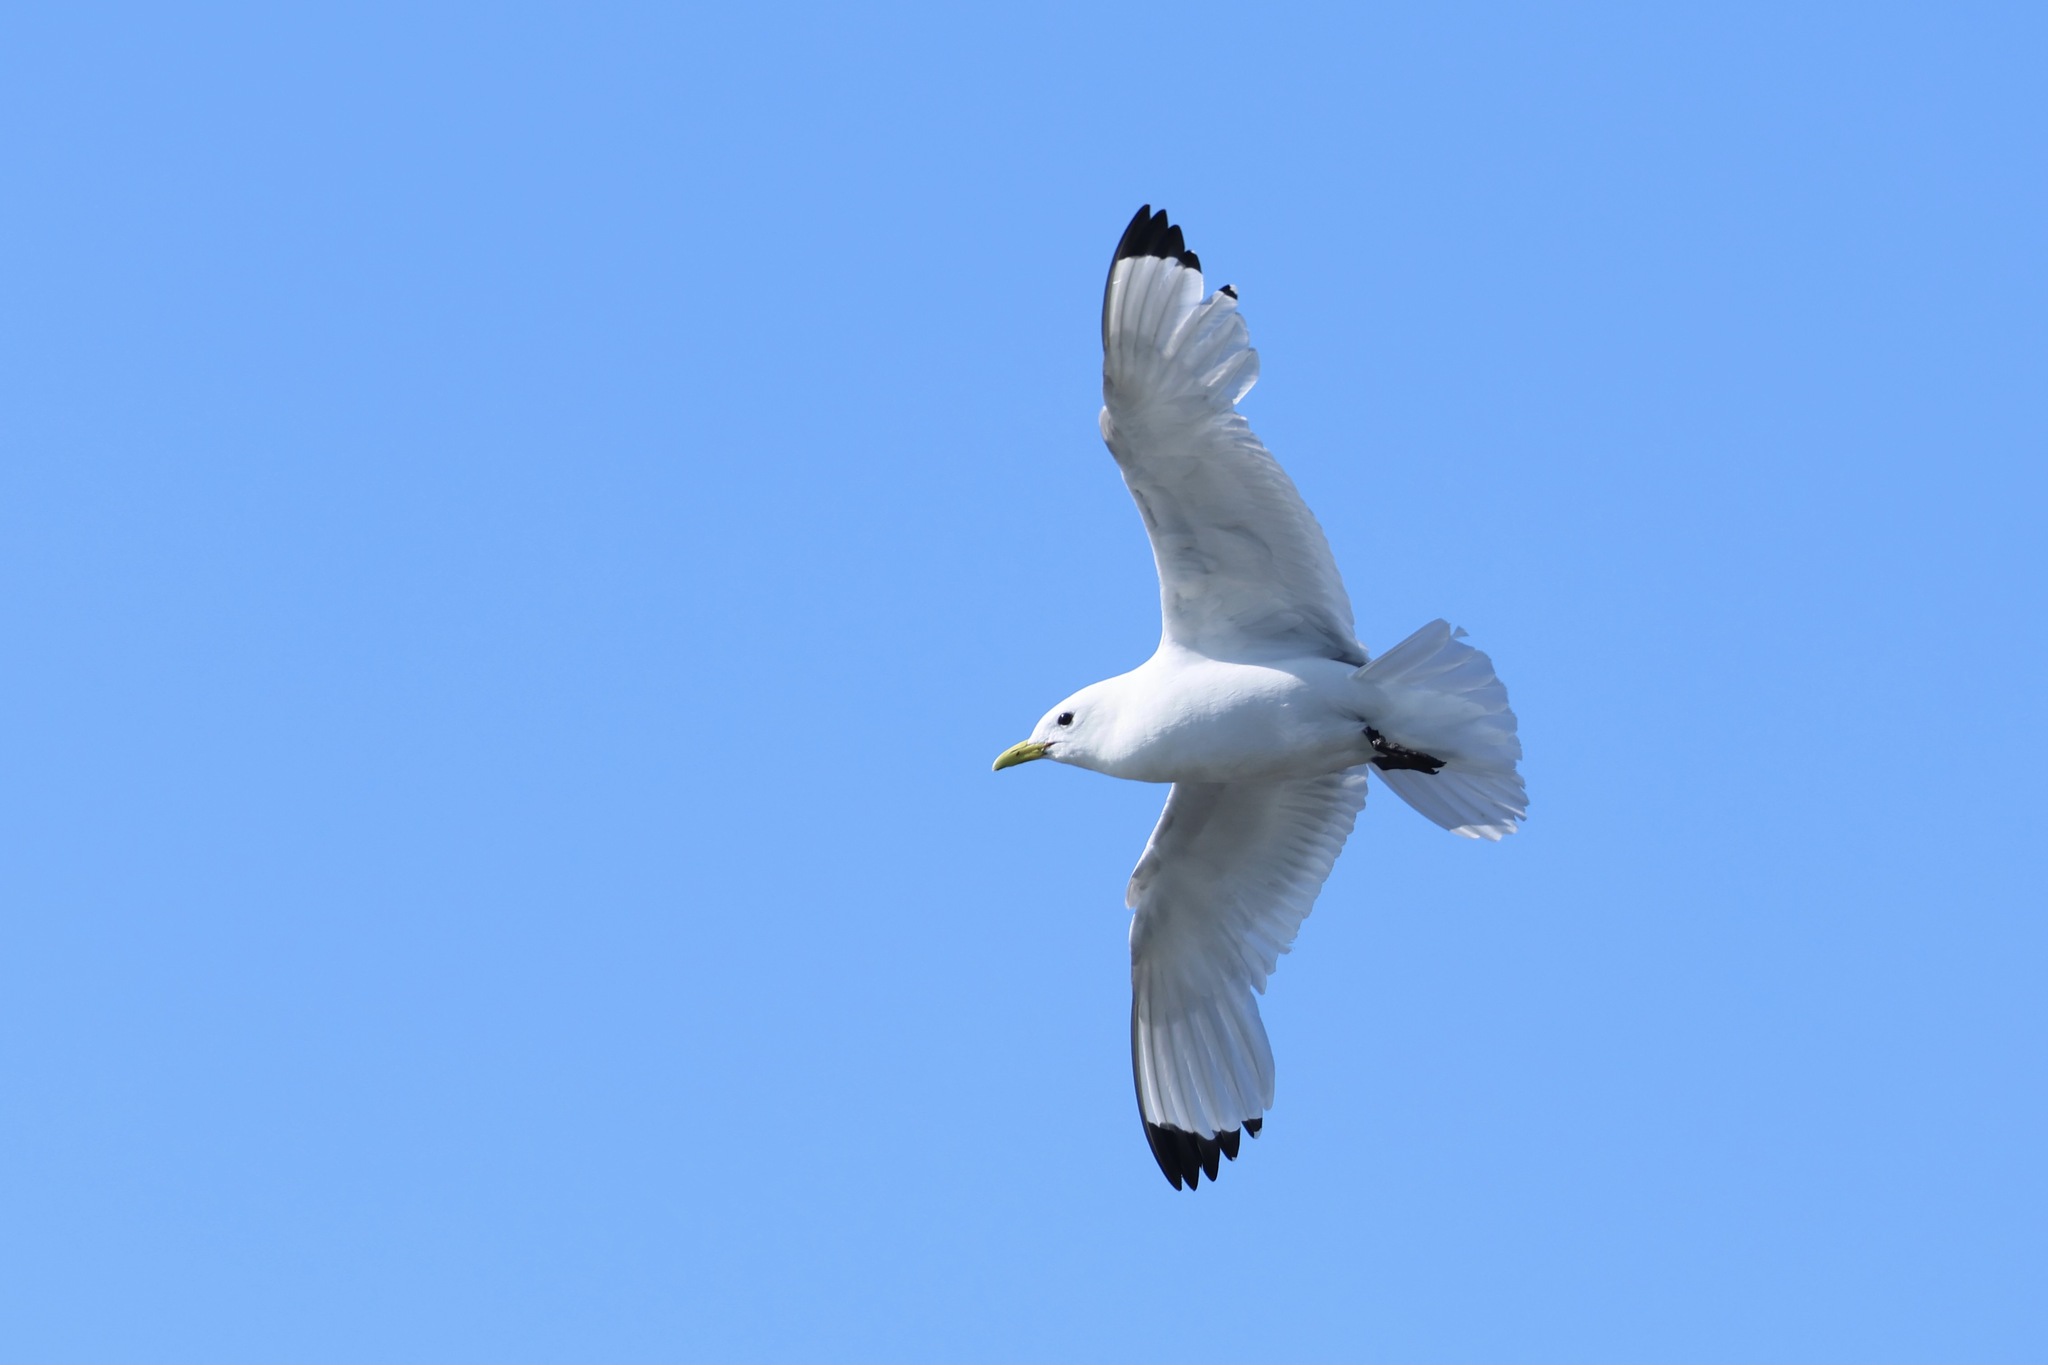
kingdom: Animalia
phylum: Chordata
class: Aves
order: Charadriiformes
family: Laridae
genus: Rissa
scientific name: Rissa tridactyla
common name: Black-legged kittiwake
